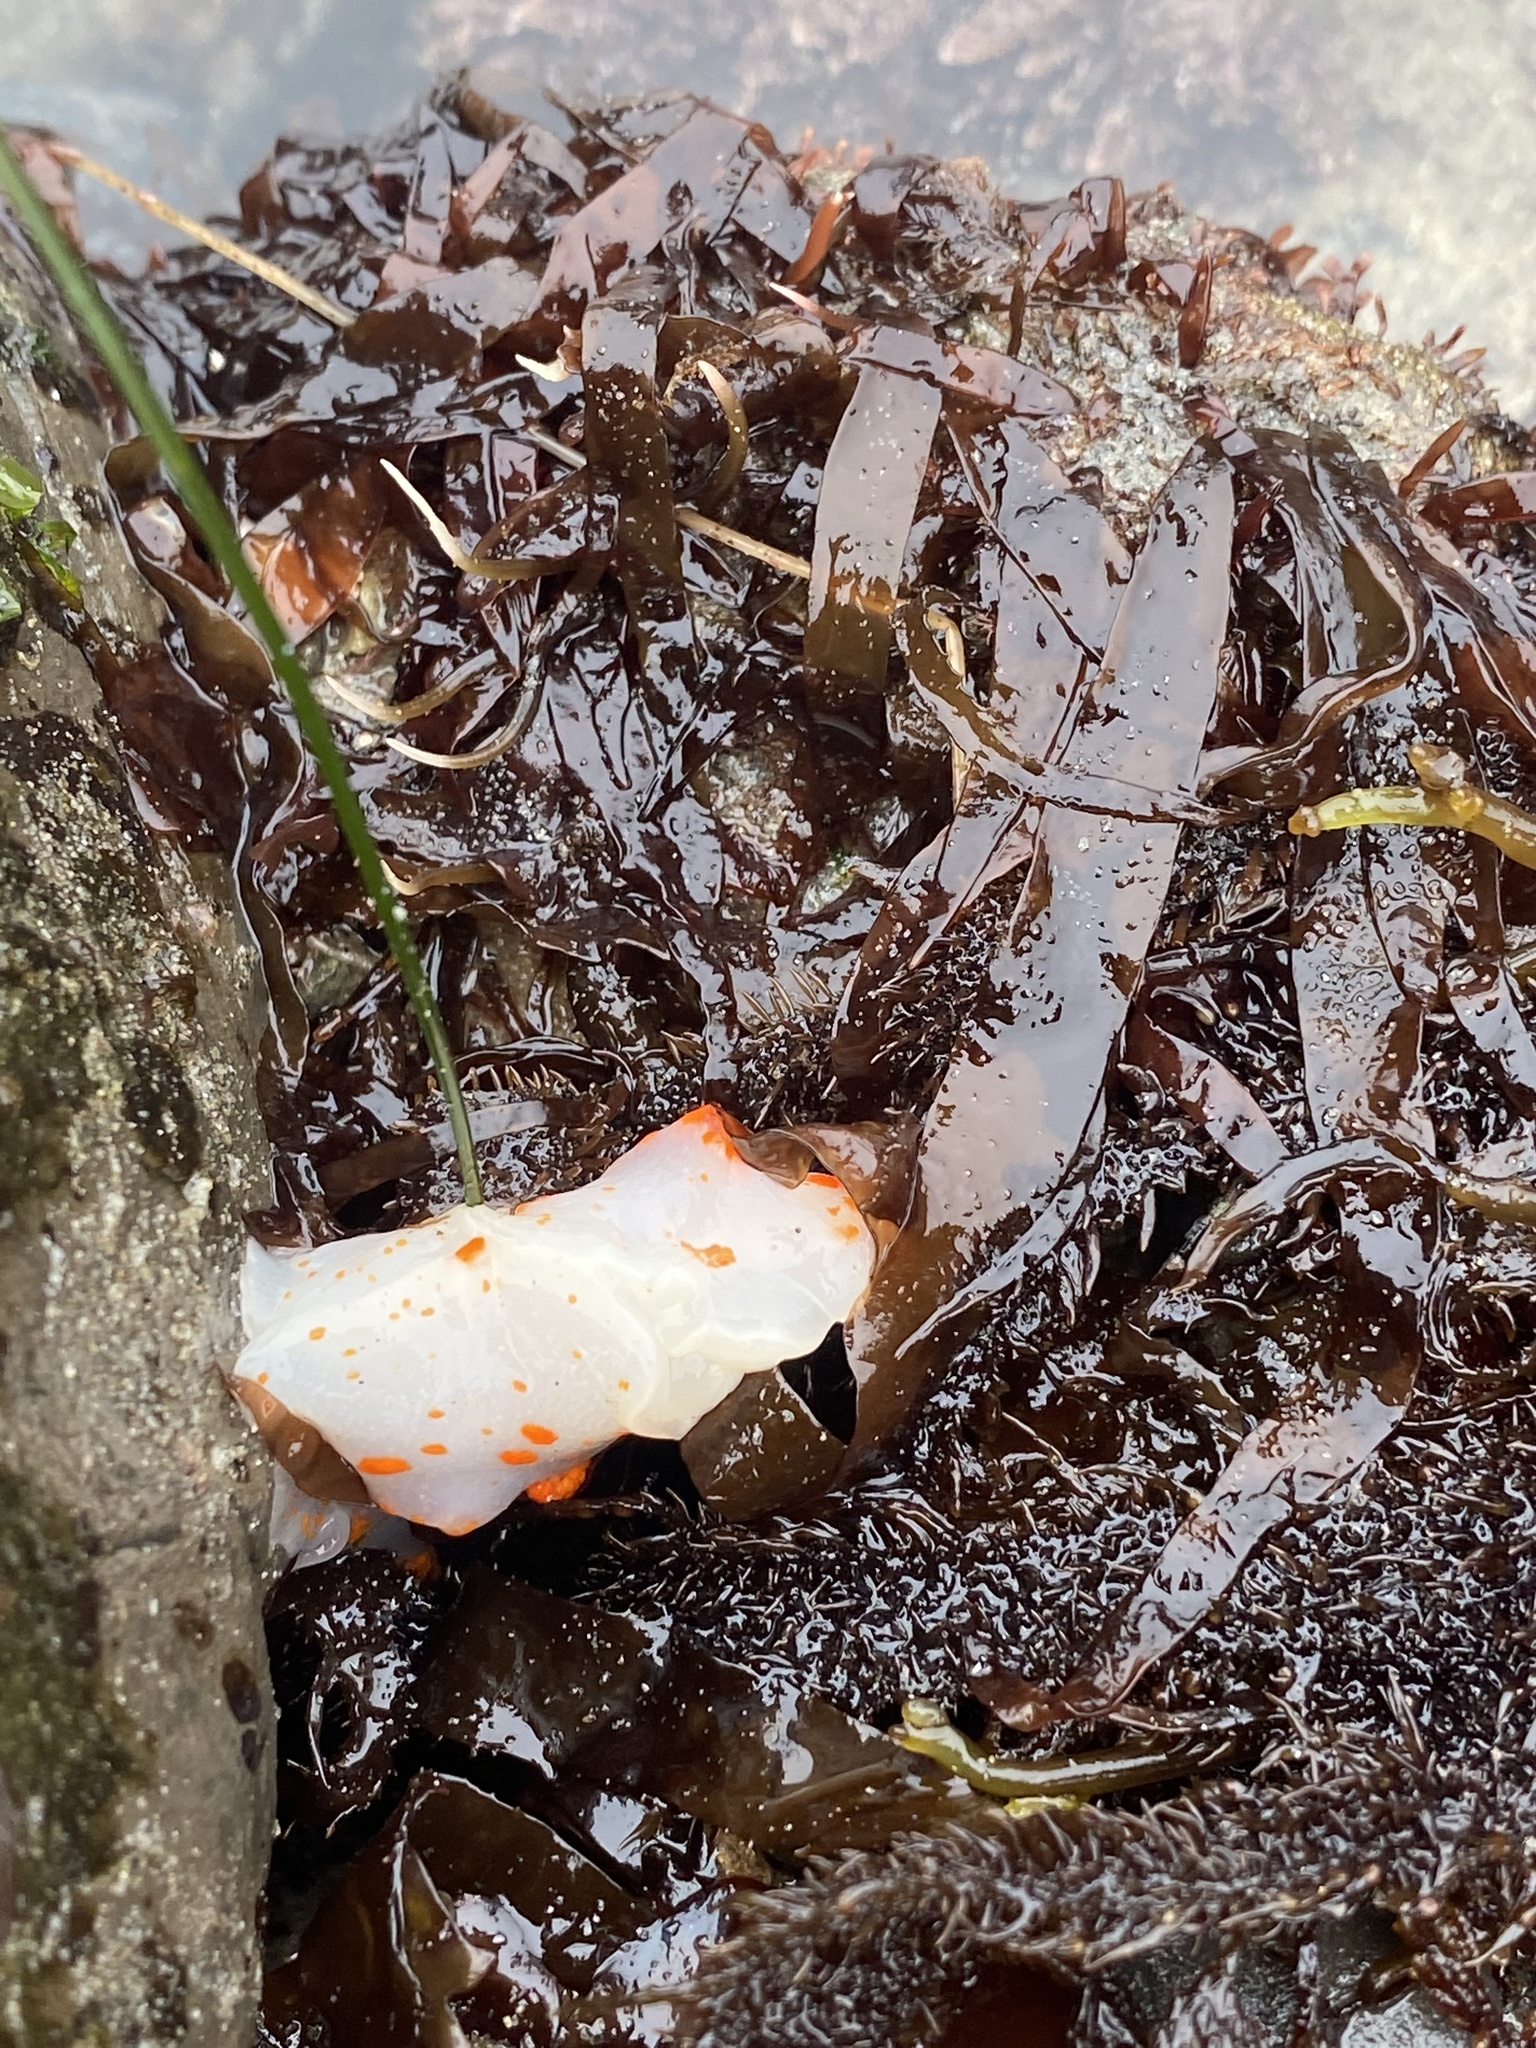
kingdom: Animalia
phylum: Mollusca
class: Gastropoda
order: Nudibranchia
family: Polyceridae
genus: Triopha
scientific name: Triopha catalinae
